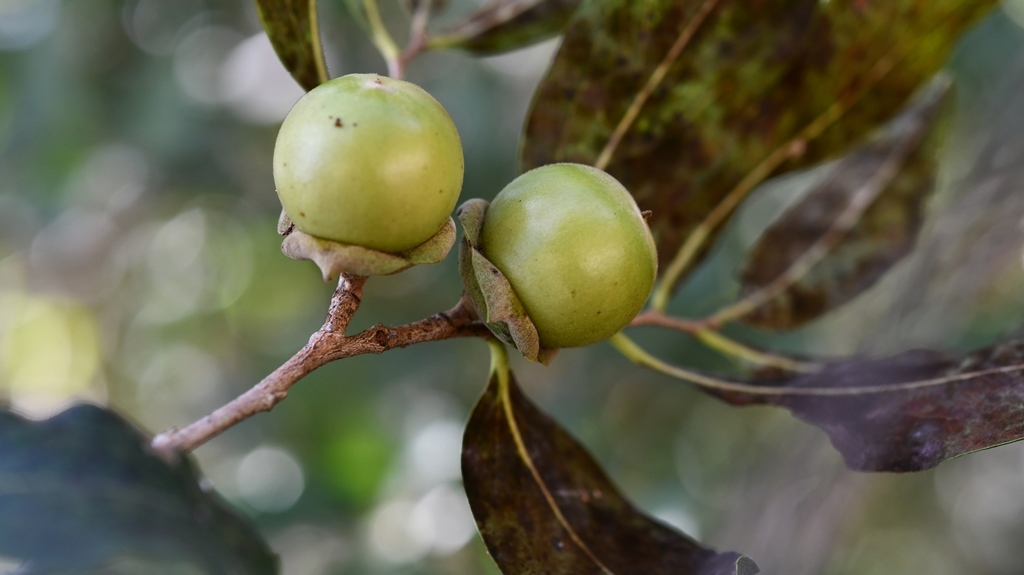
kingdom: Plantae
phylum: Tracheophyta
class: Magnoliopsida
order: Ericales
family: Ebenaceae
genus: Diospyros
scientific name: Diospyros salicifolia
